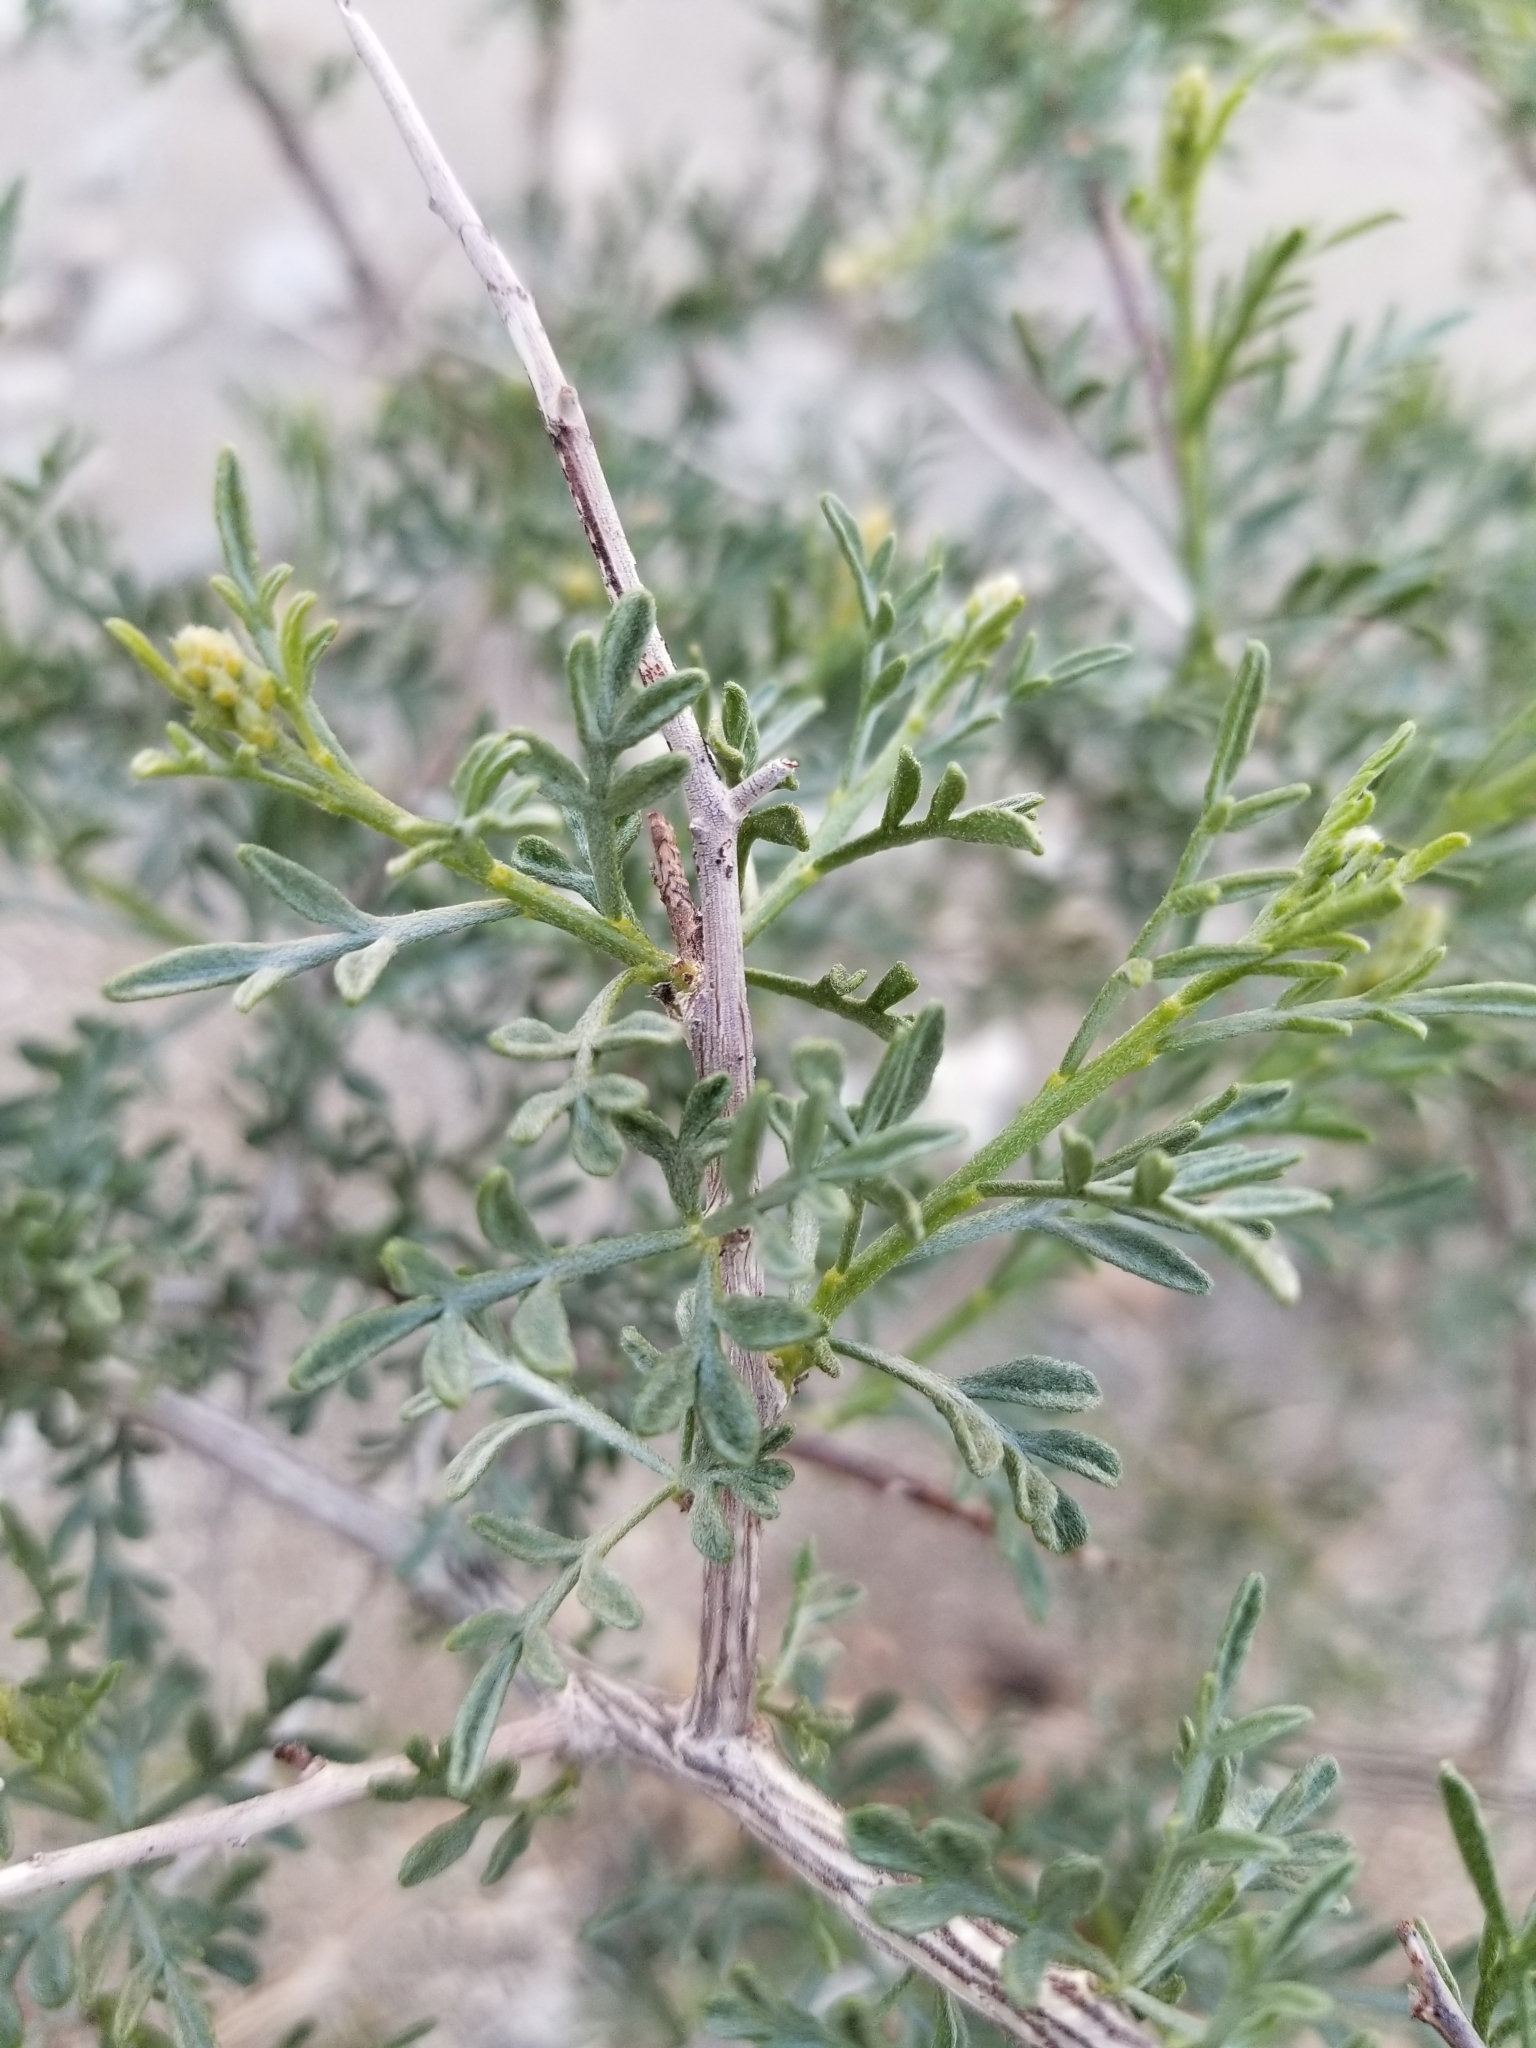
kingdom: Plantae
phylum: Tracheophyta
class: Magnoliopsida
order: Fabales
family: Fabaceae
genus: Psorothamnus
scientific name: Psorothamnus arborescens
